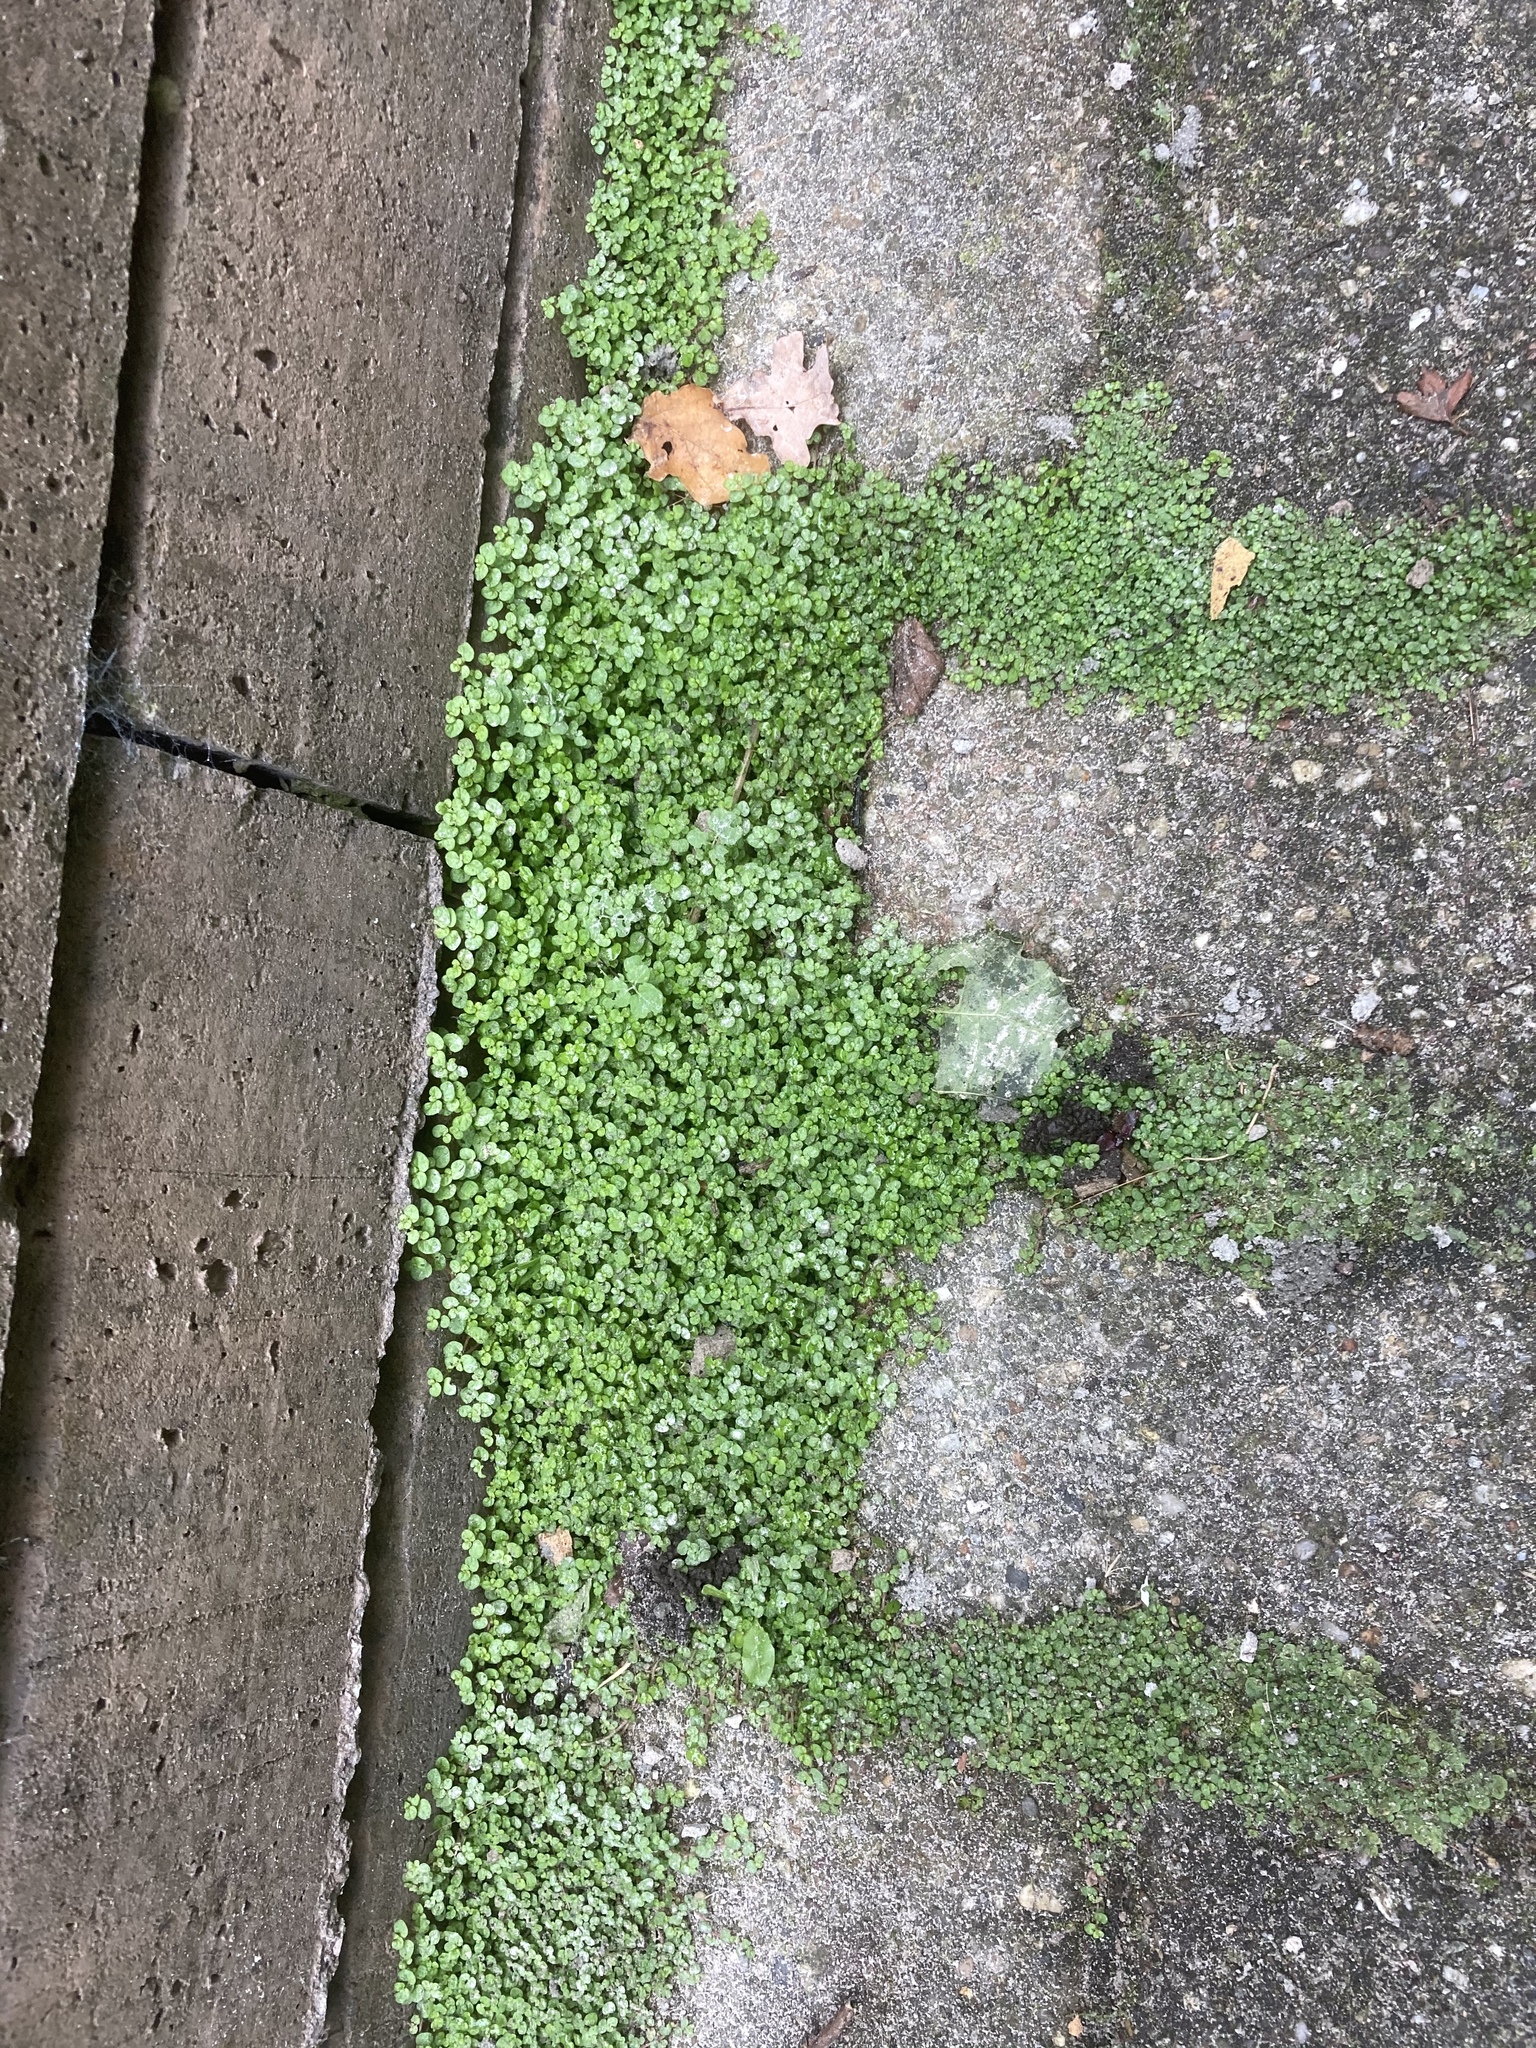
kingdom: Plantae
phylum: Tracheophyta
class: Magnoliopsida
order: Rosales
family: Urticaceae
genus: Soleirolia
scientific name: Soleirolia soleirolii
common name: Mind-your-own-business
